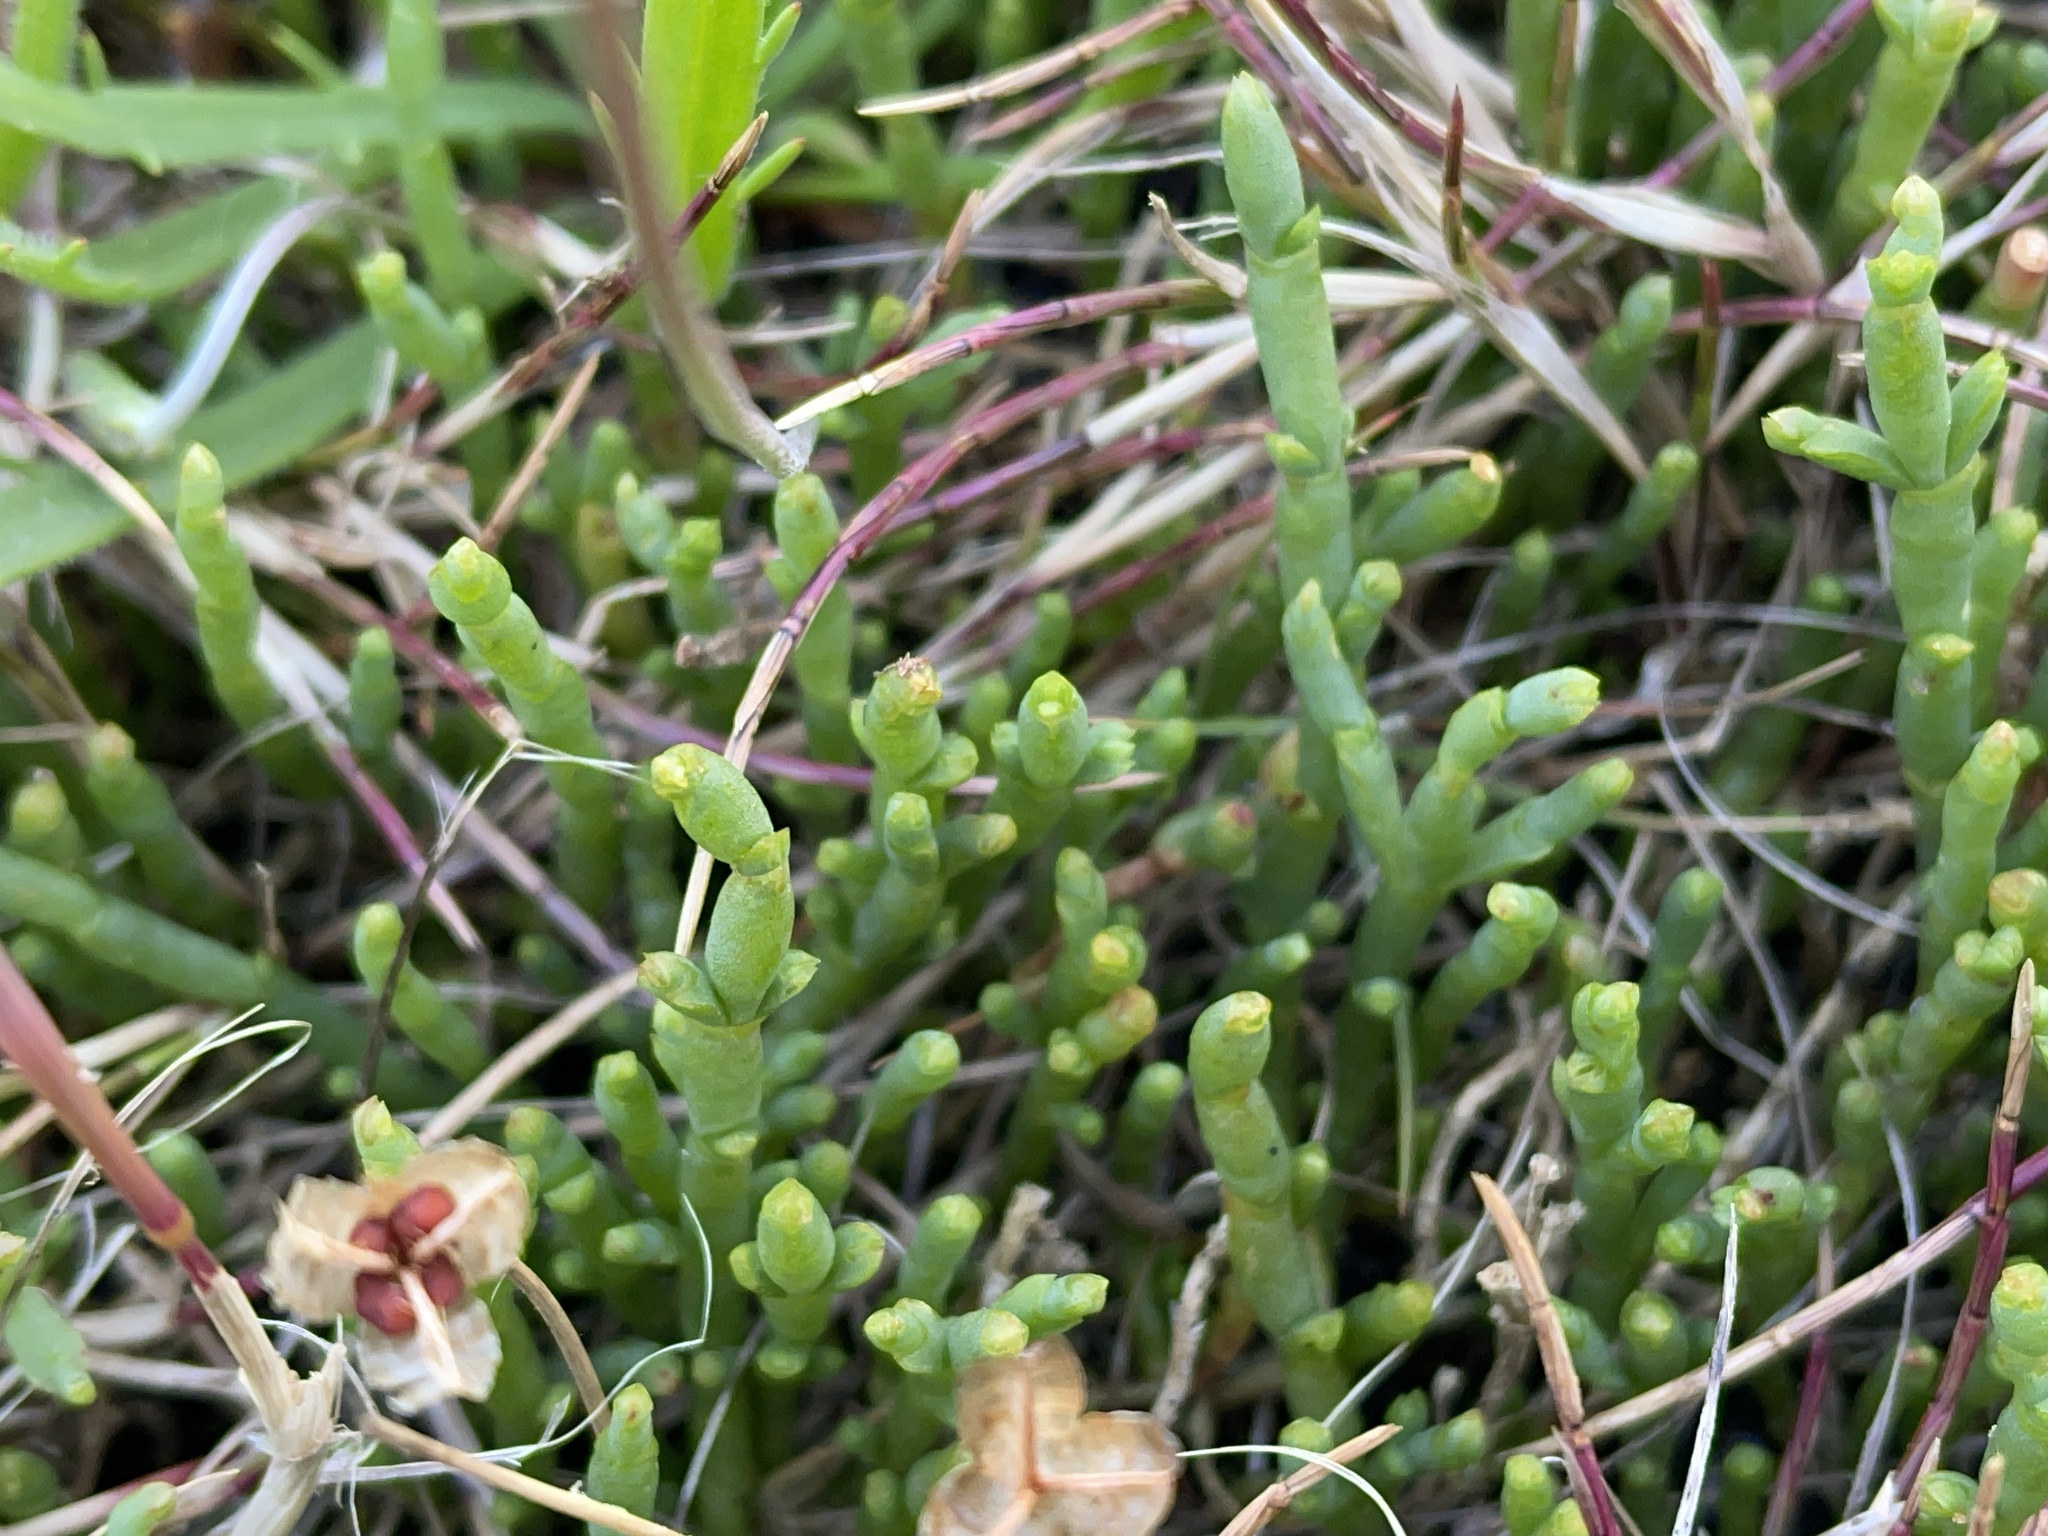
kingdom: Plantae
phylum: Tracheophyta
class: Magnoliopsida
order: Caryophyllales
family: Amaranthaceae
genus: Salicornia
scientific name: Salicornia quinqueflora
